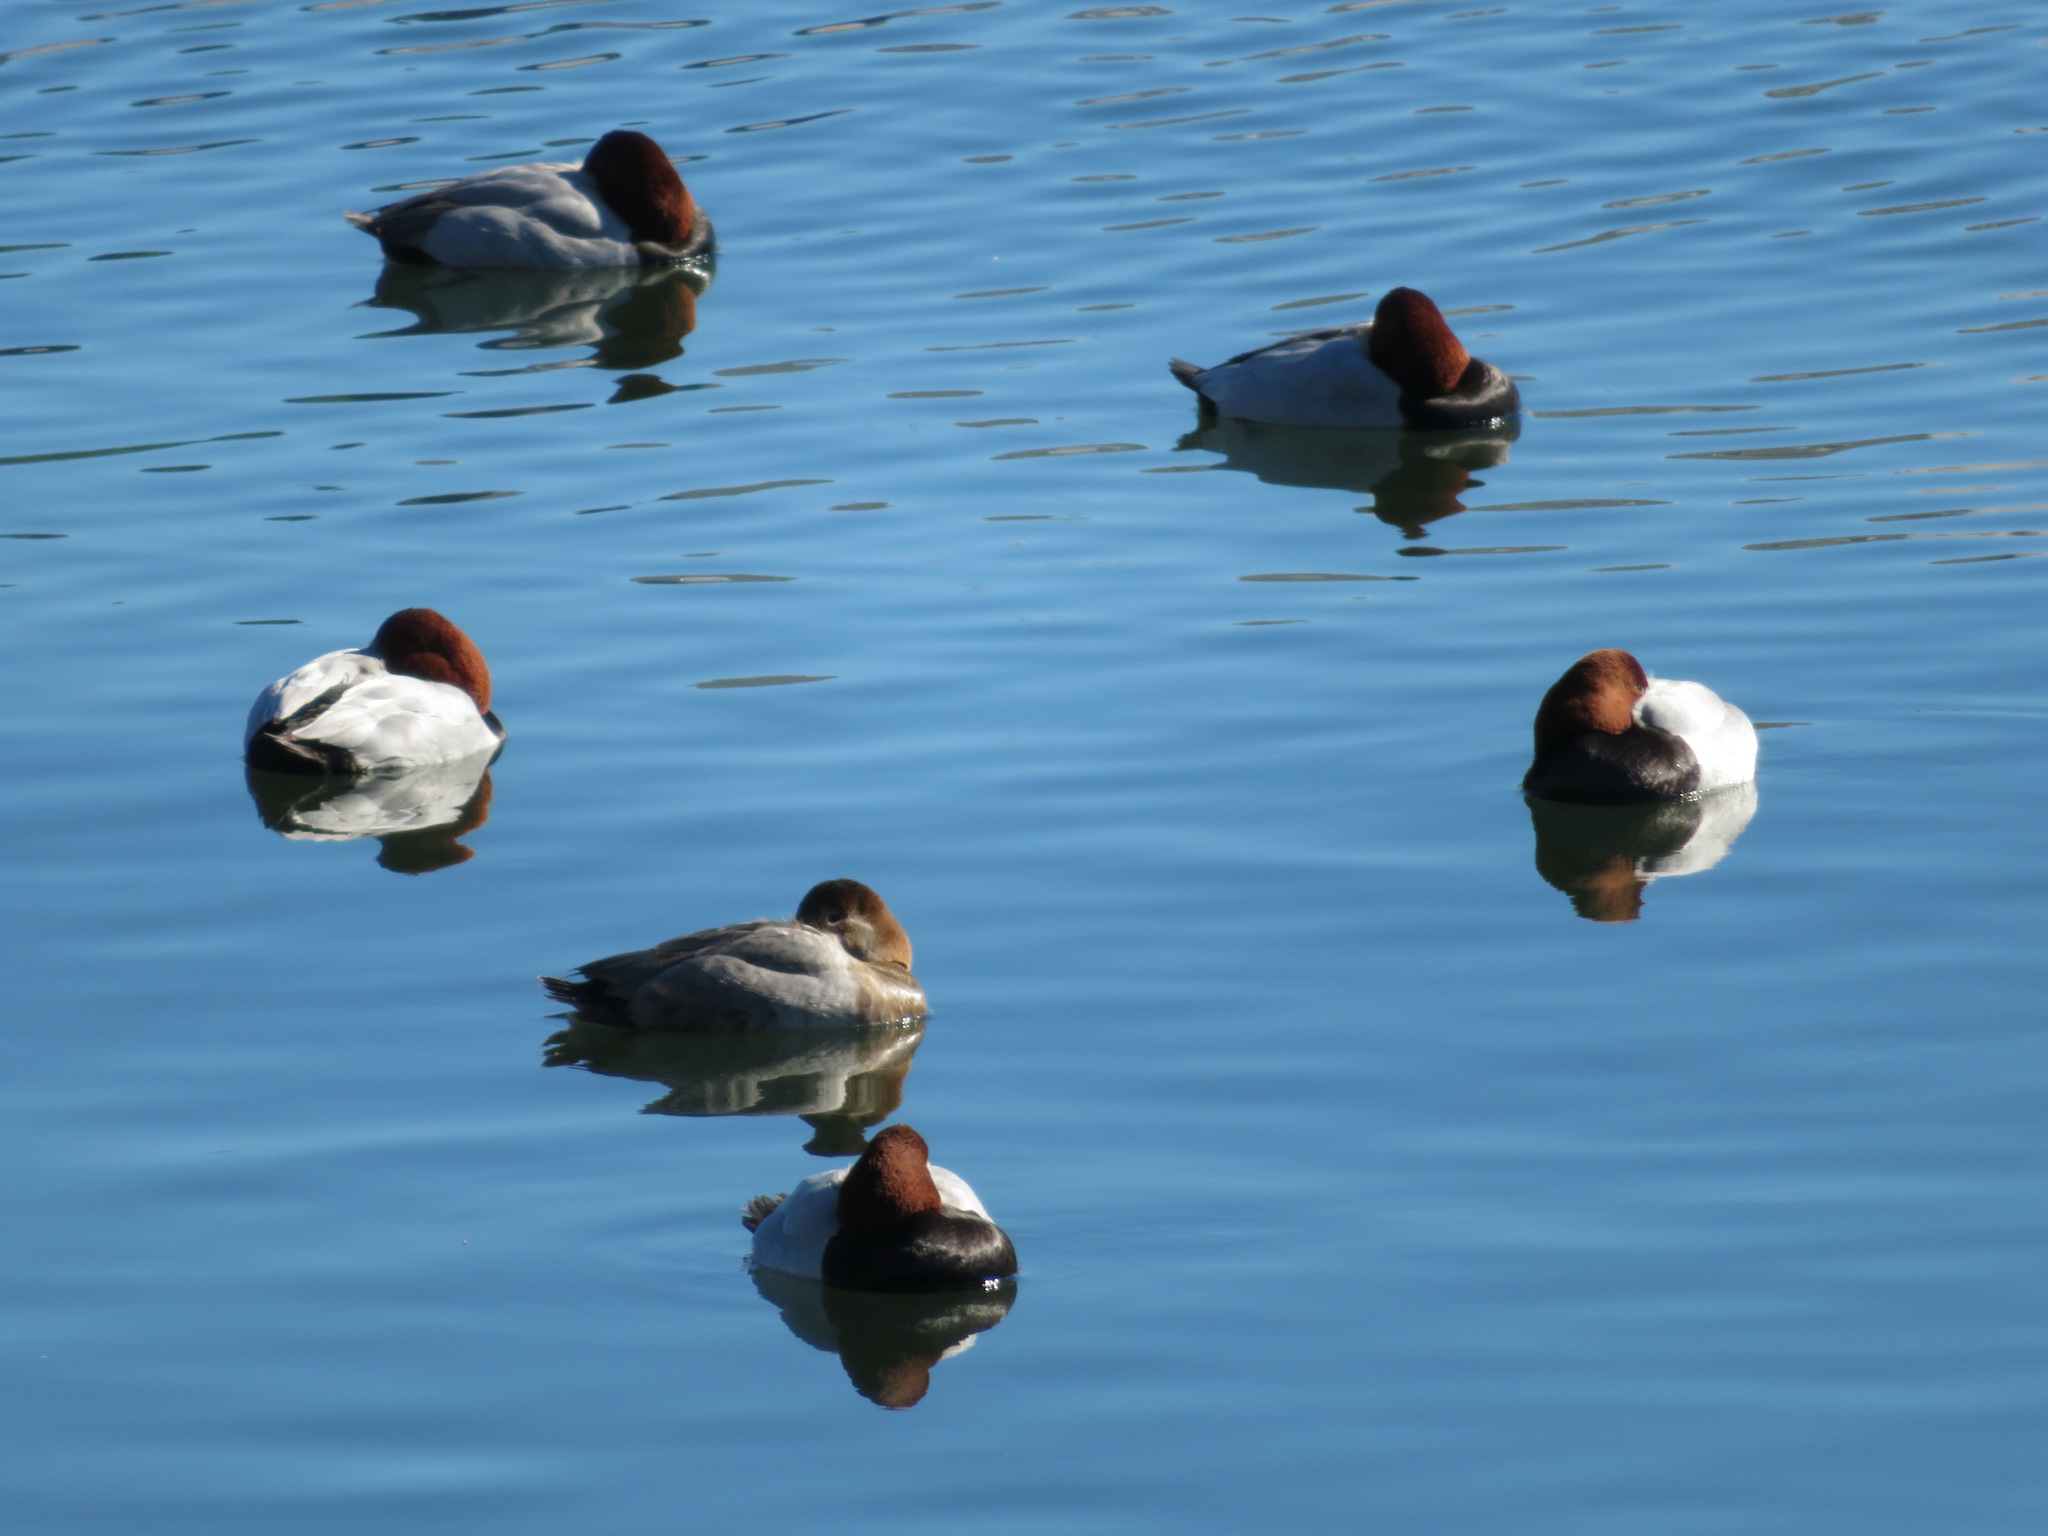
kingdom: Animalia
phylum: Chordata
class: Aves
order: Anseriformes
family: Anatidae
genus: Aythya
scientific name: Aythya ferina
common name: Common pochard
